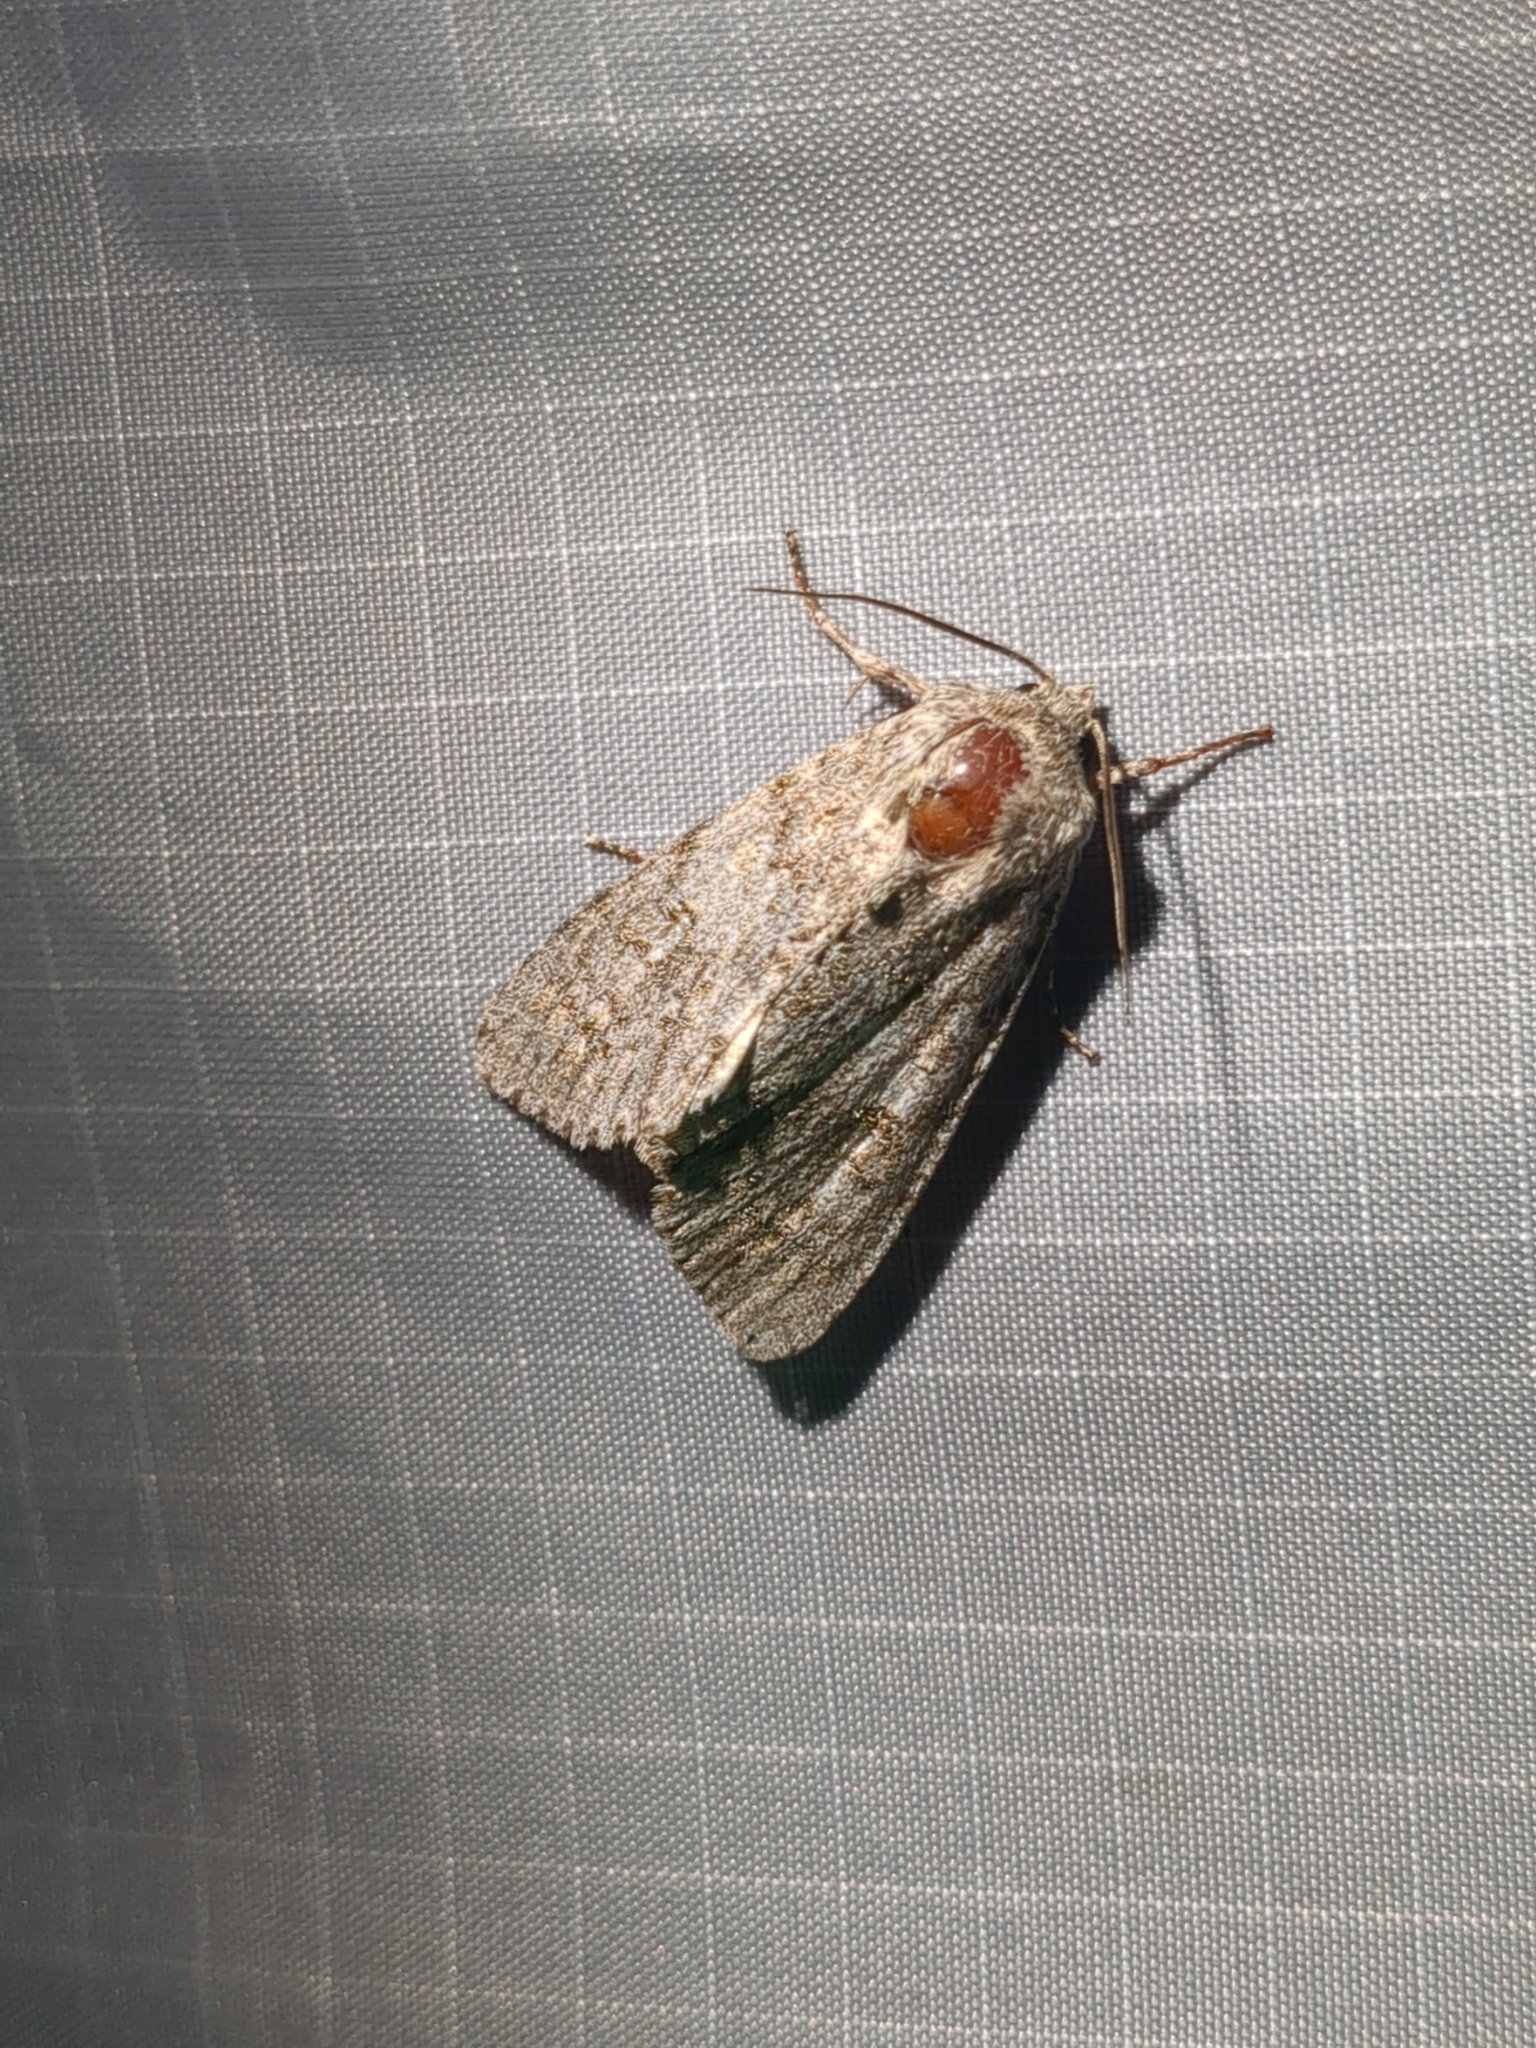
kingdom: Animalia
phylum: Arthropoda
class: Insecta
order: Lepidoptera
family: Noctuidae
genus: Acronicta
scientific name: Acronicta rubricoma
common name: Hackberry dagger
